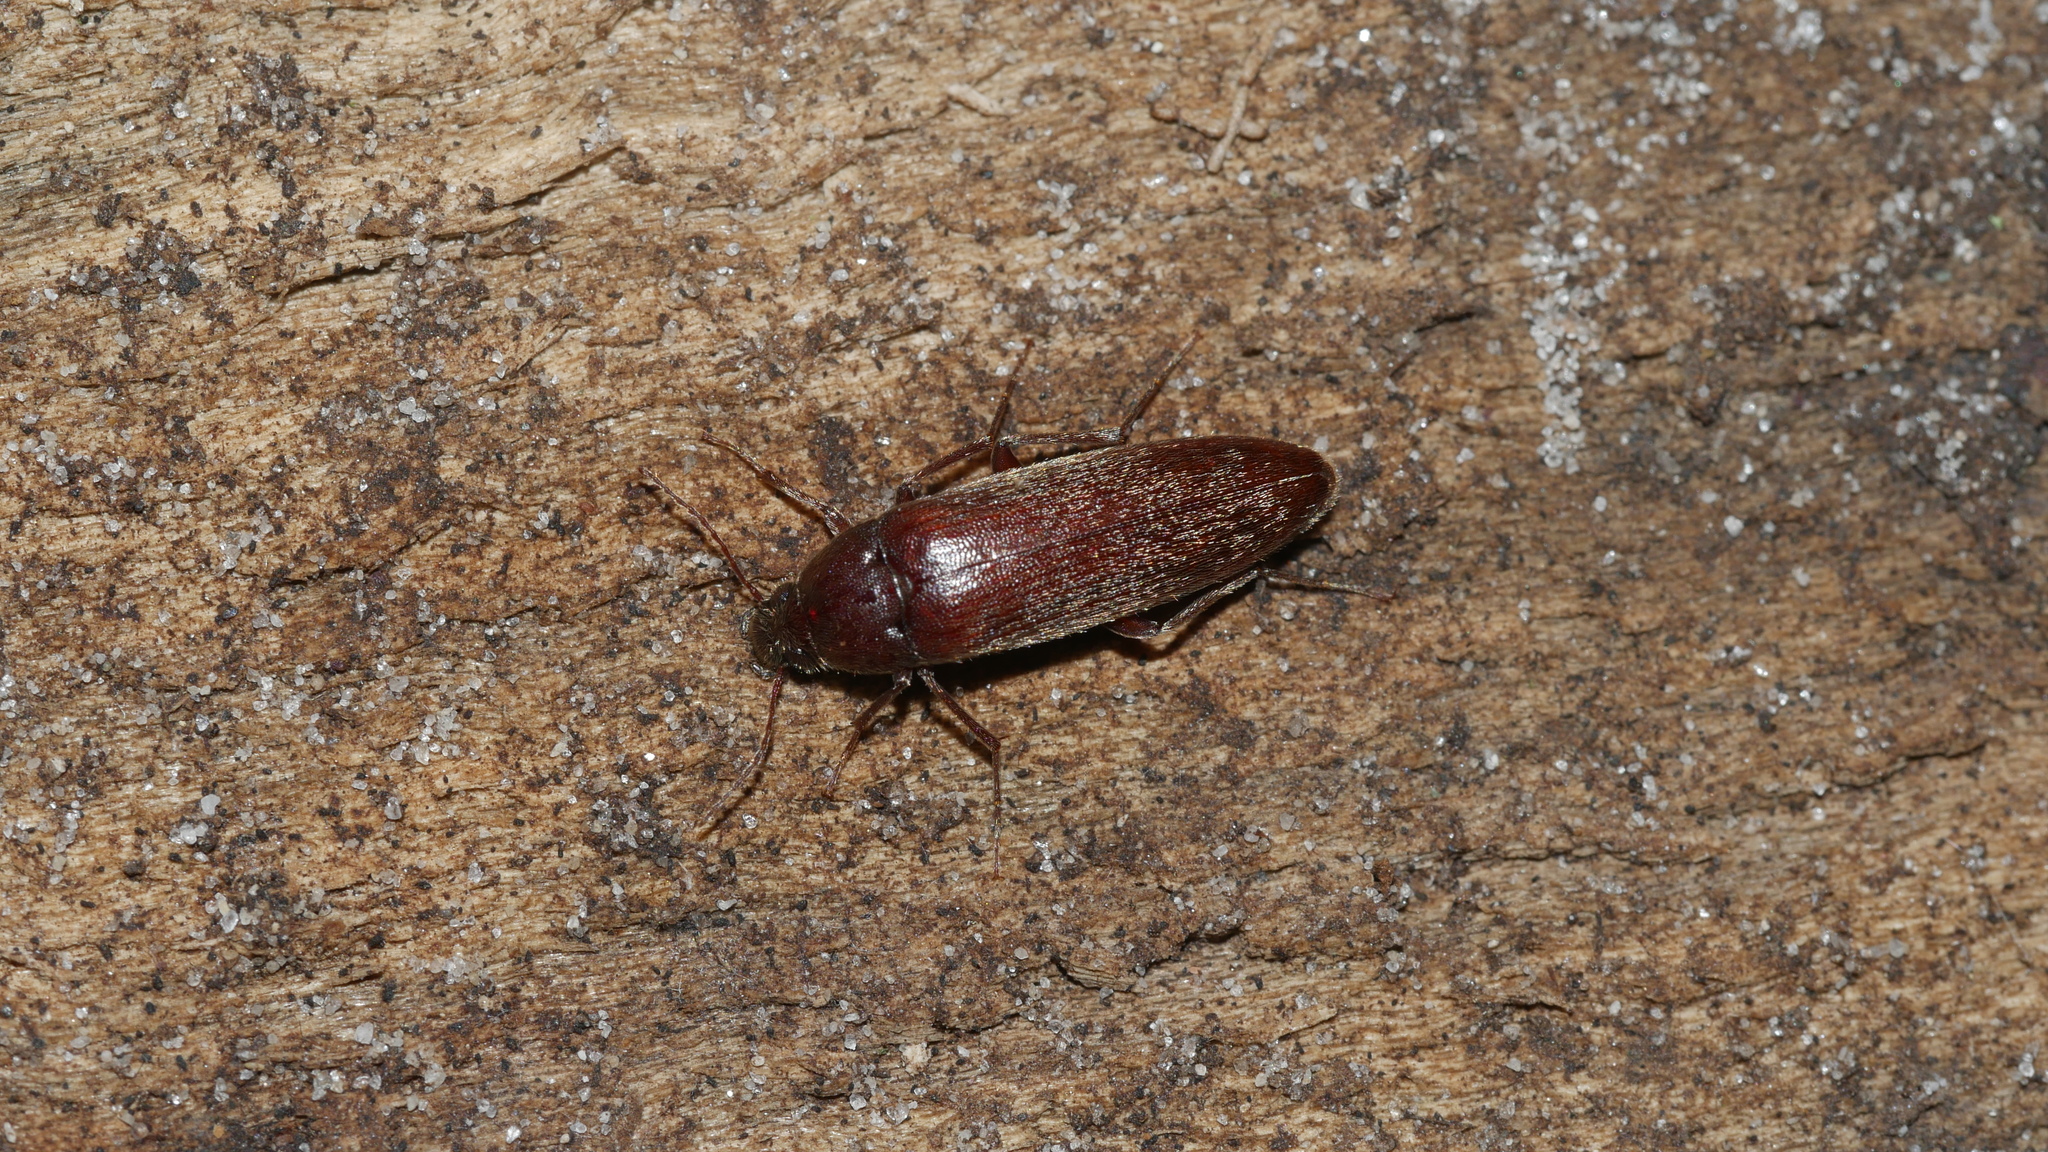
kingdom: Animalia
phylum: Arthropoda
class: Insecta
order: Coleoptera
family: Synchroidae
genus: Synchroa
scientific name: Synchroa punctata
